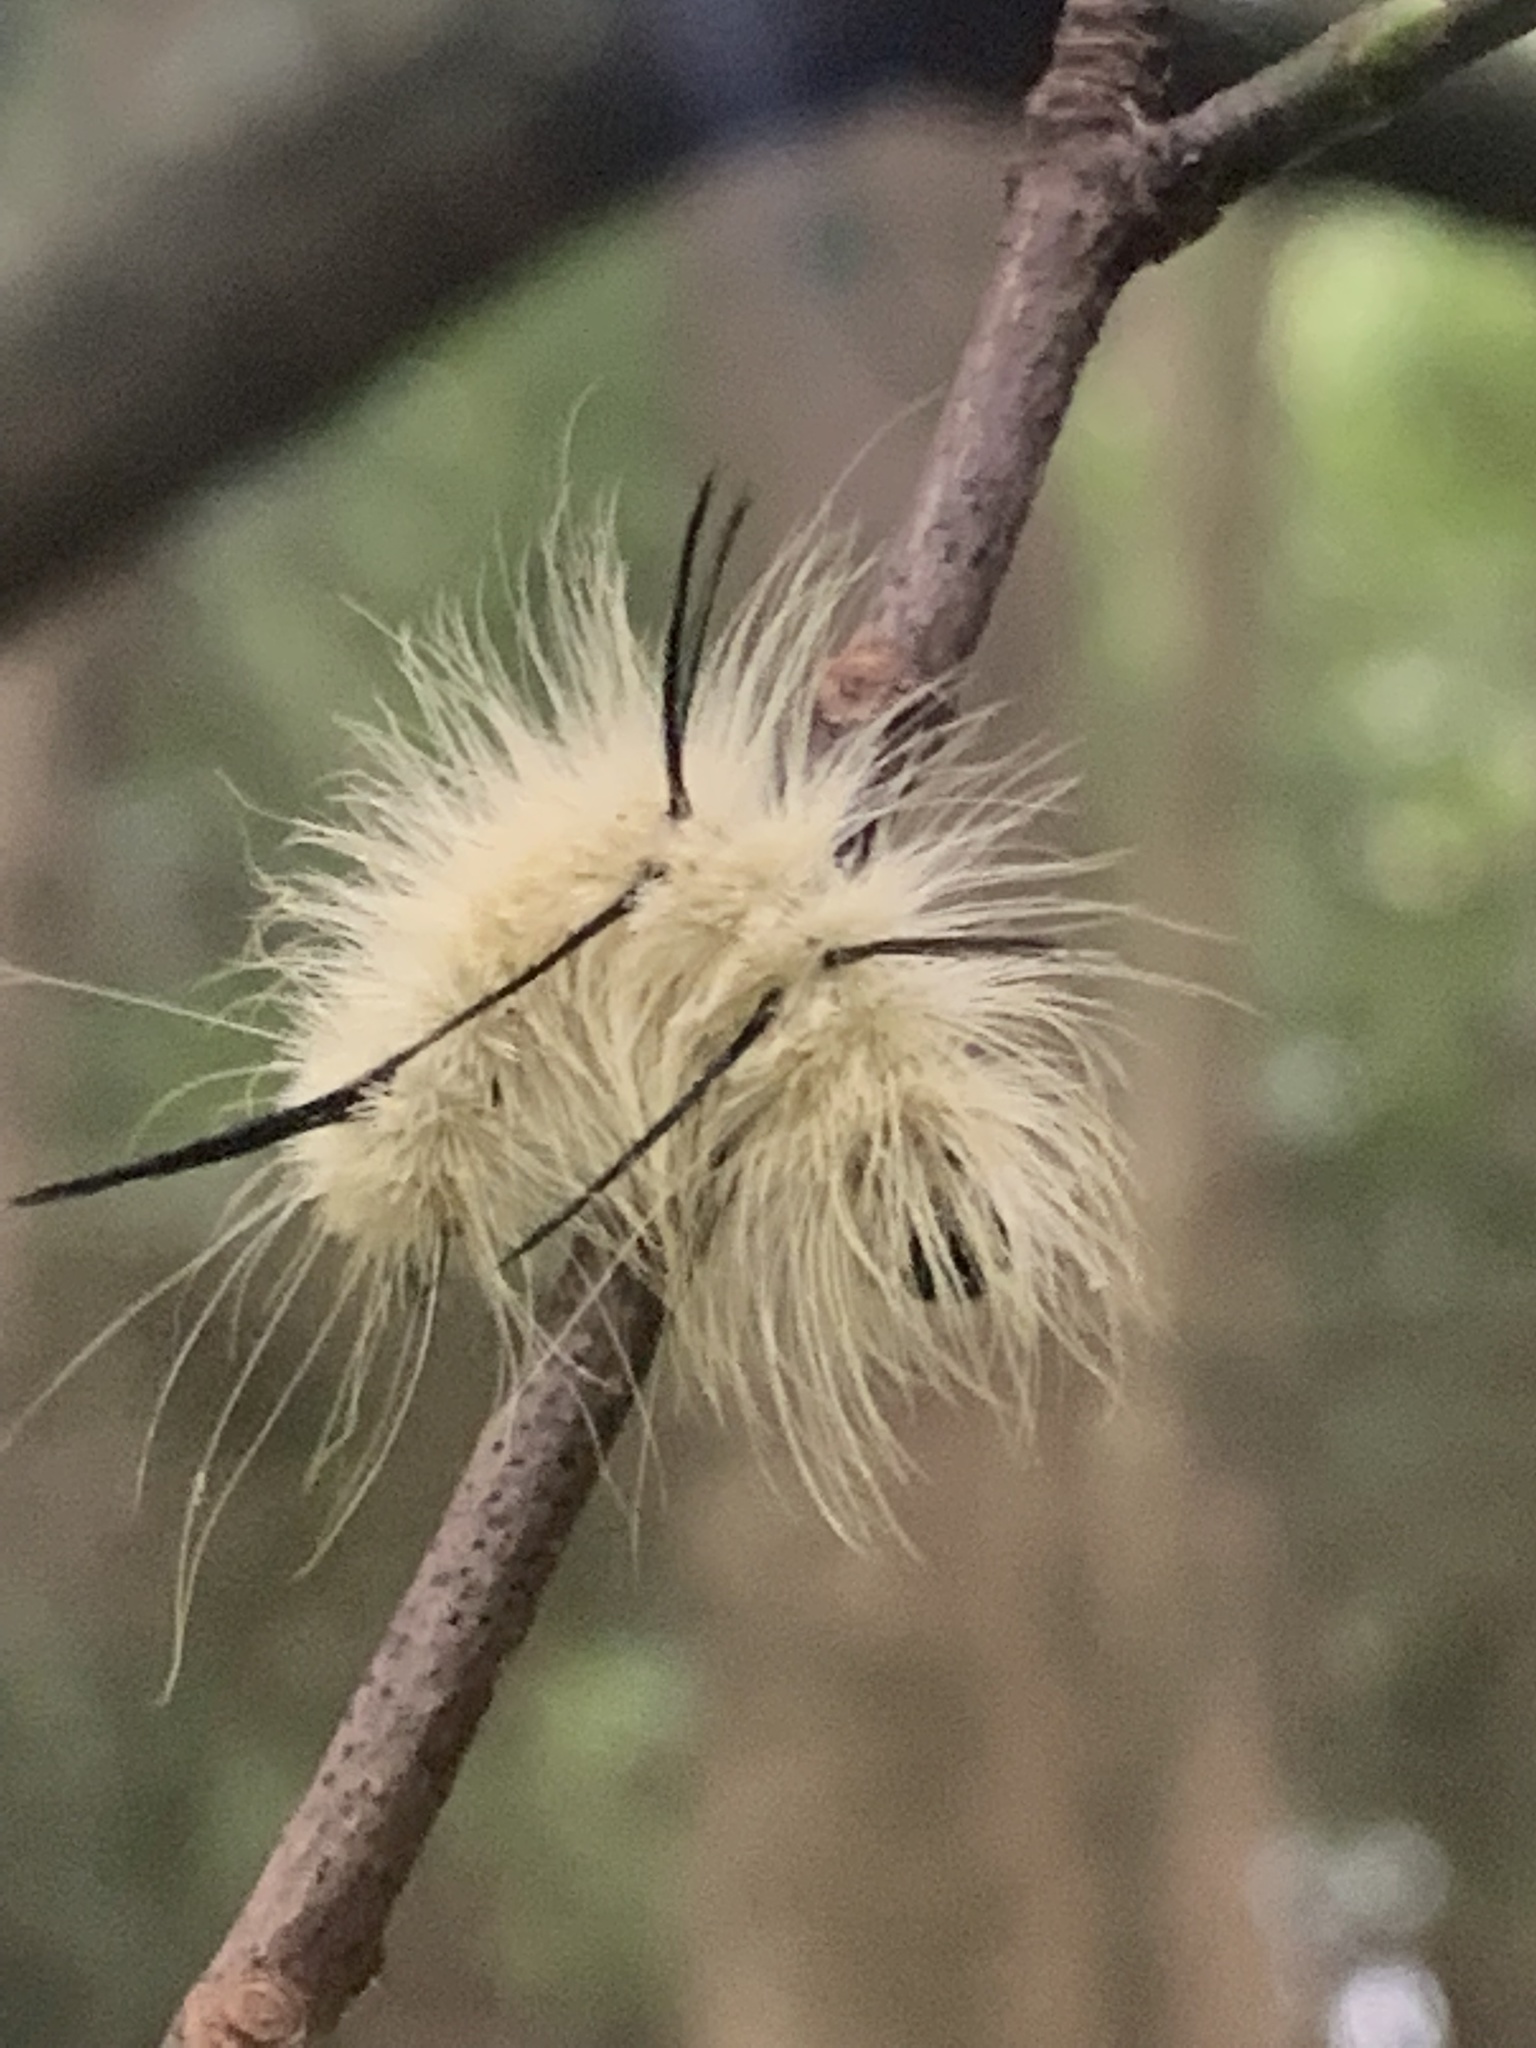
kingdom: Animalia
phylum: Arthropoda
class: Insecta
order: Lepidoptera
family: Noctuidae
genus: Acronicta
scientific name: Acronicta americana
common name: American dagger
